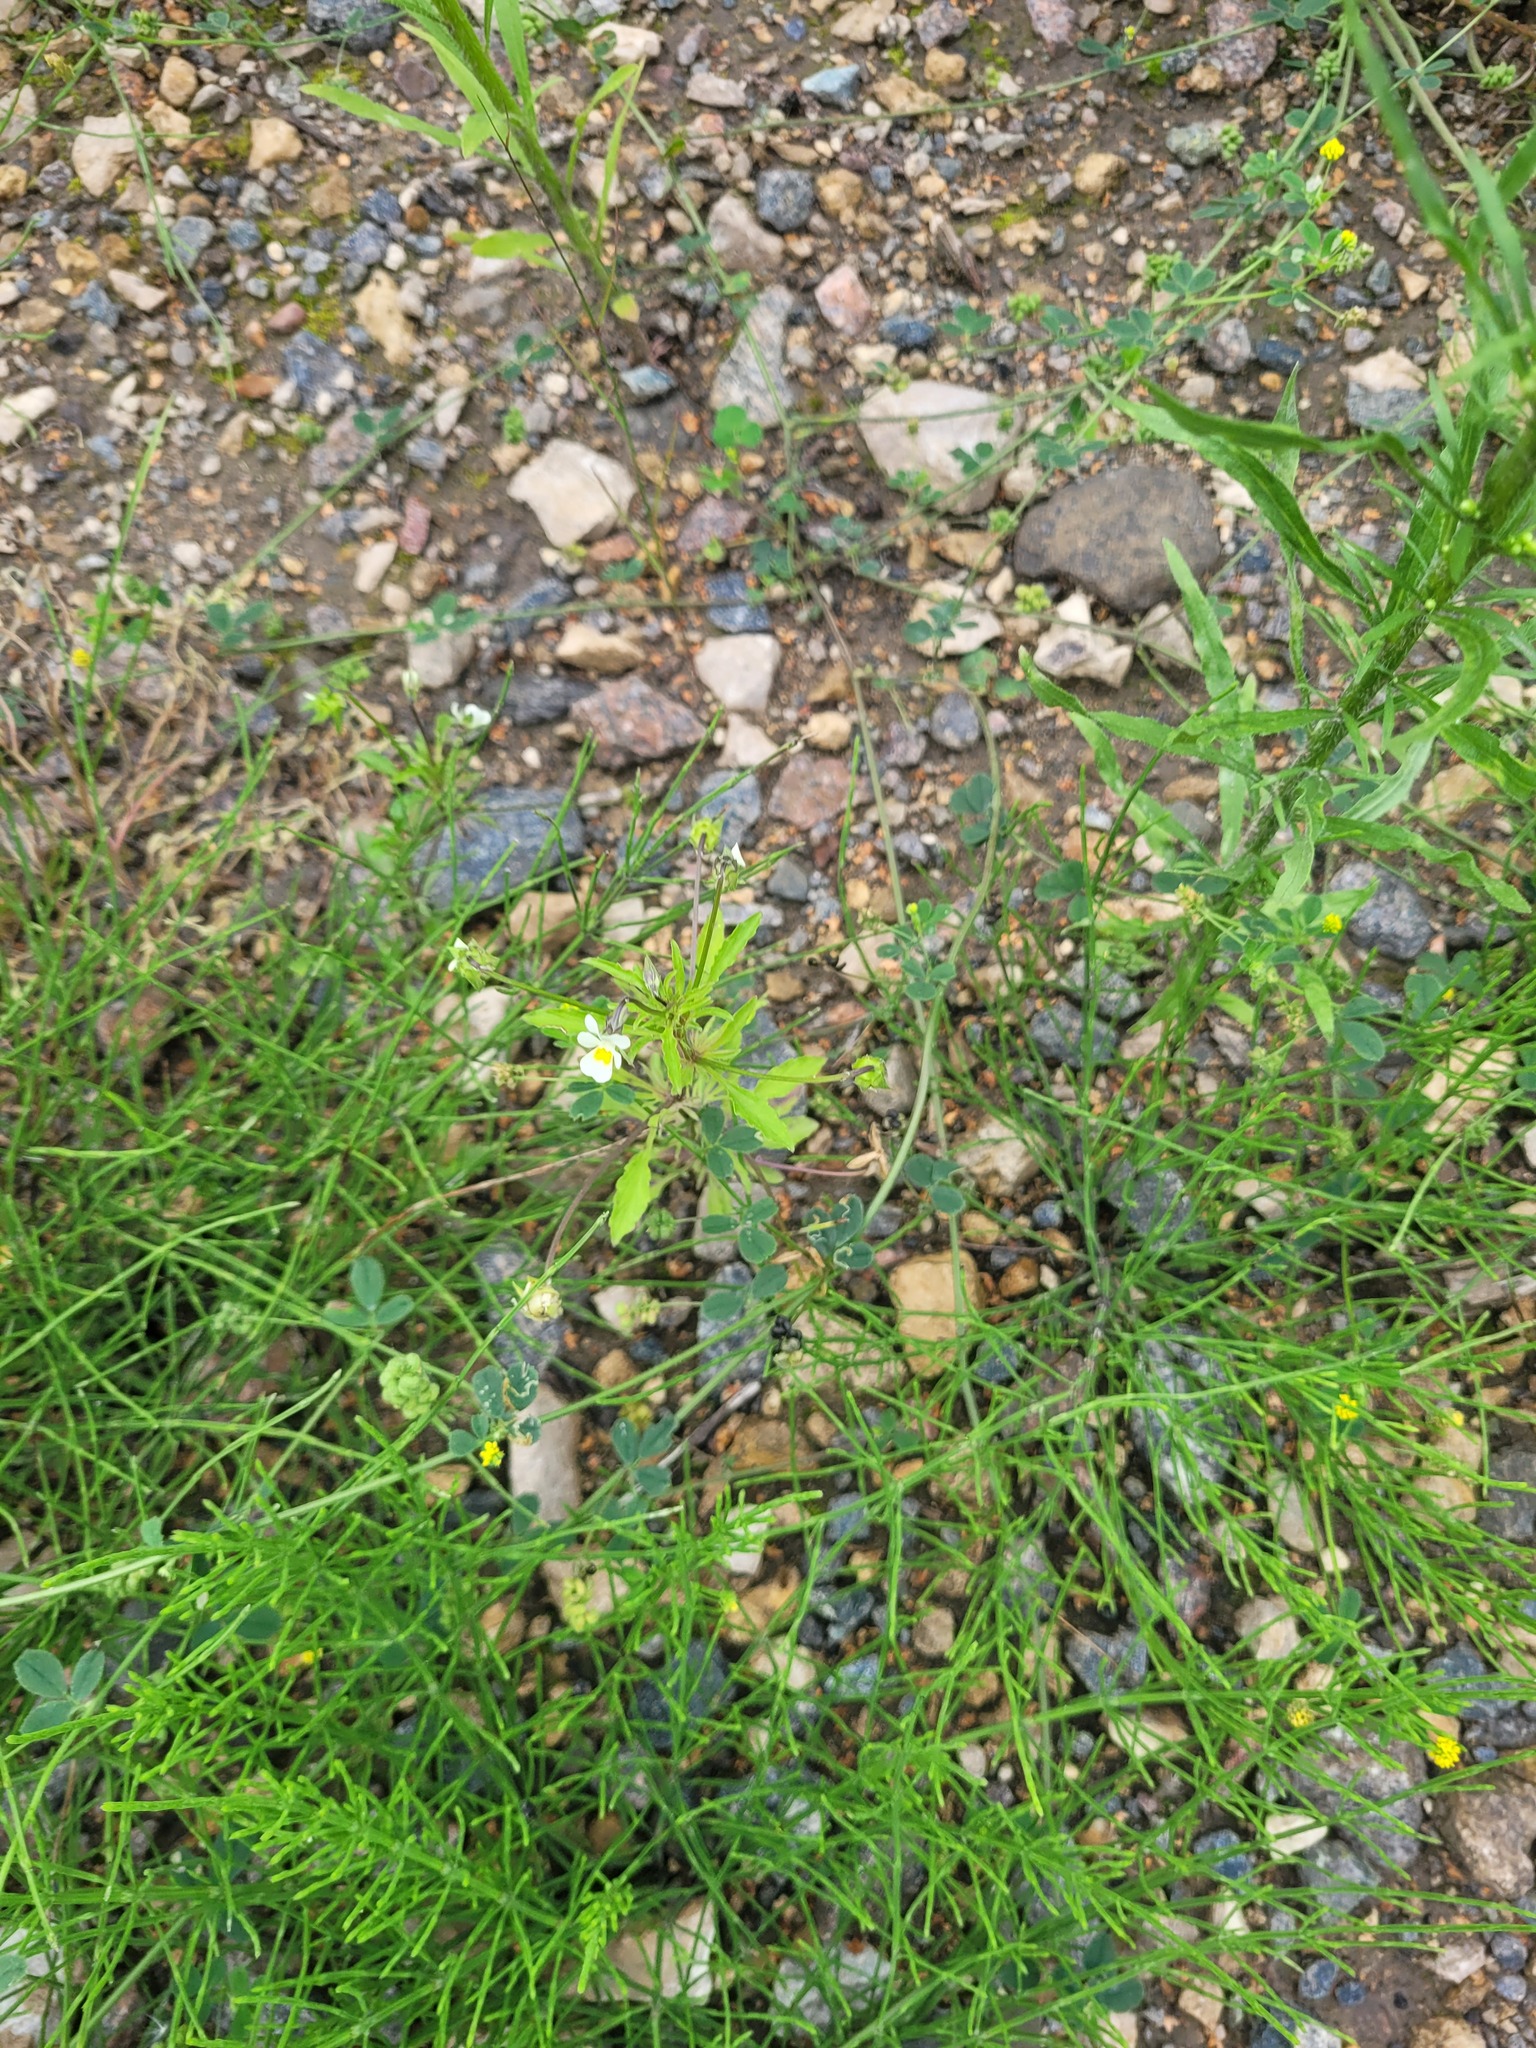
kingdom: Plantae
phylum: Tracheophyta
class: Magnoliopsida
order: Malpighiales
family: Violaceae
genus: Viola
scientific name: Viola arvensis
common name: Field pansy
